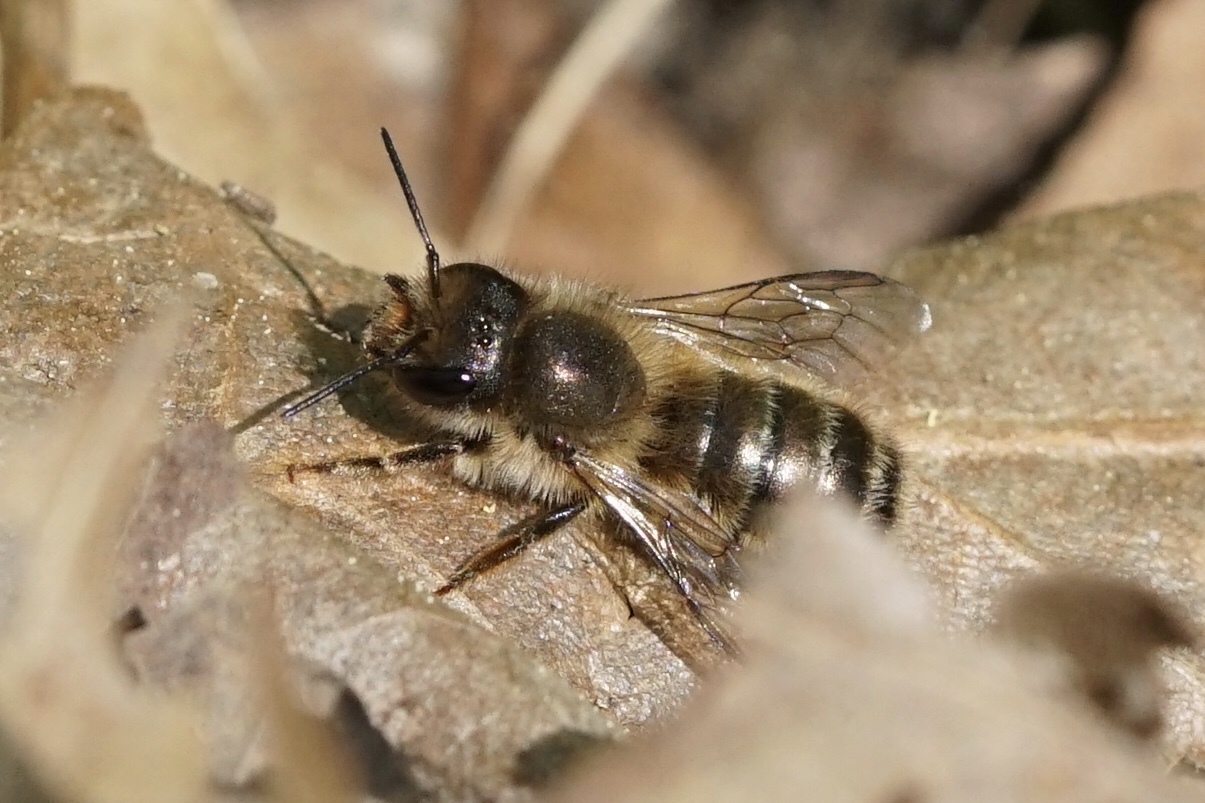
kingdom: Animalia
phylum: Arthropoda
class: Insecta
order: Hymenoptera
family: Megachilidae
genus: Osmia
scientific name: Osmia cornifrons
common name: Horn-faced bee
